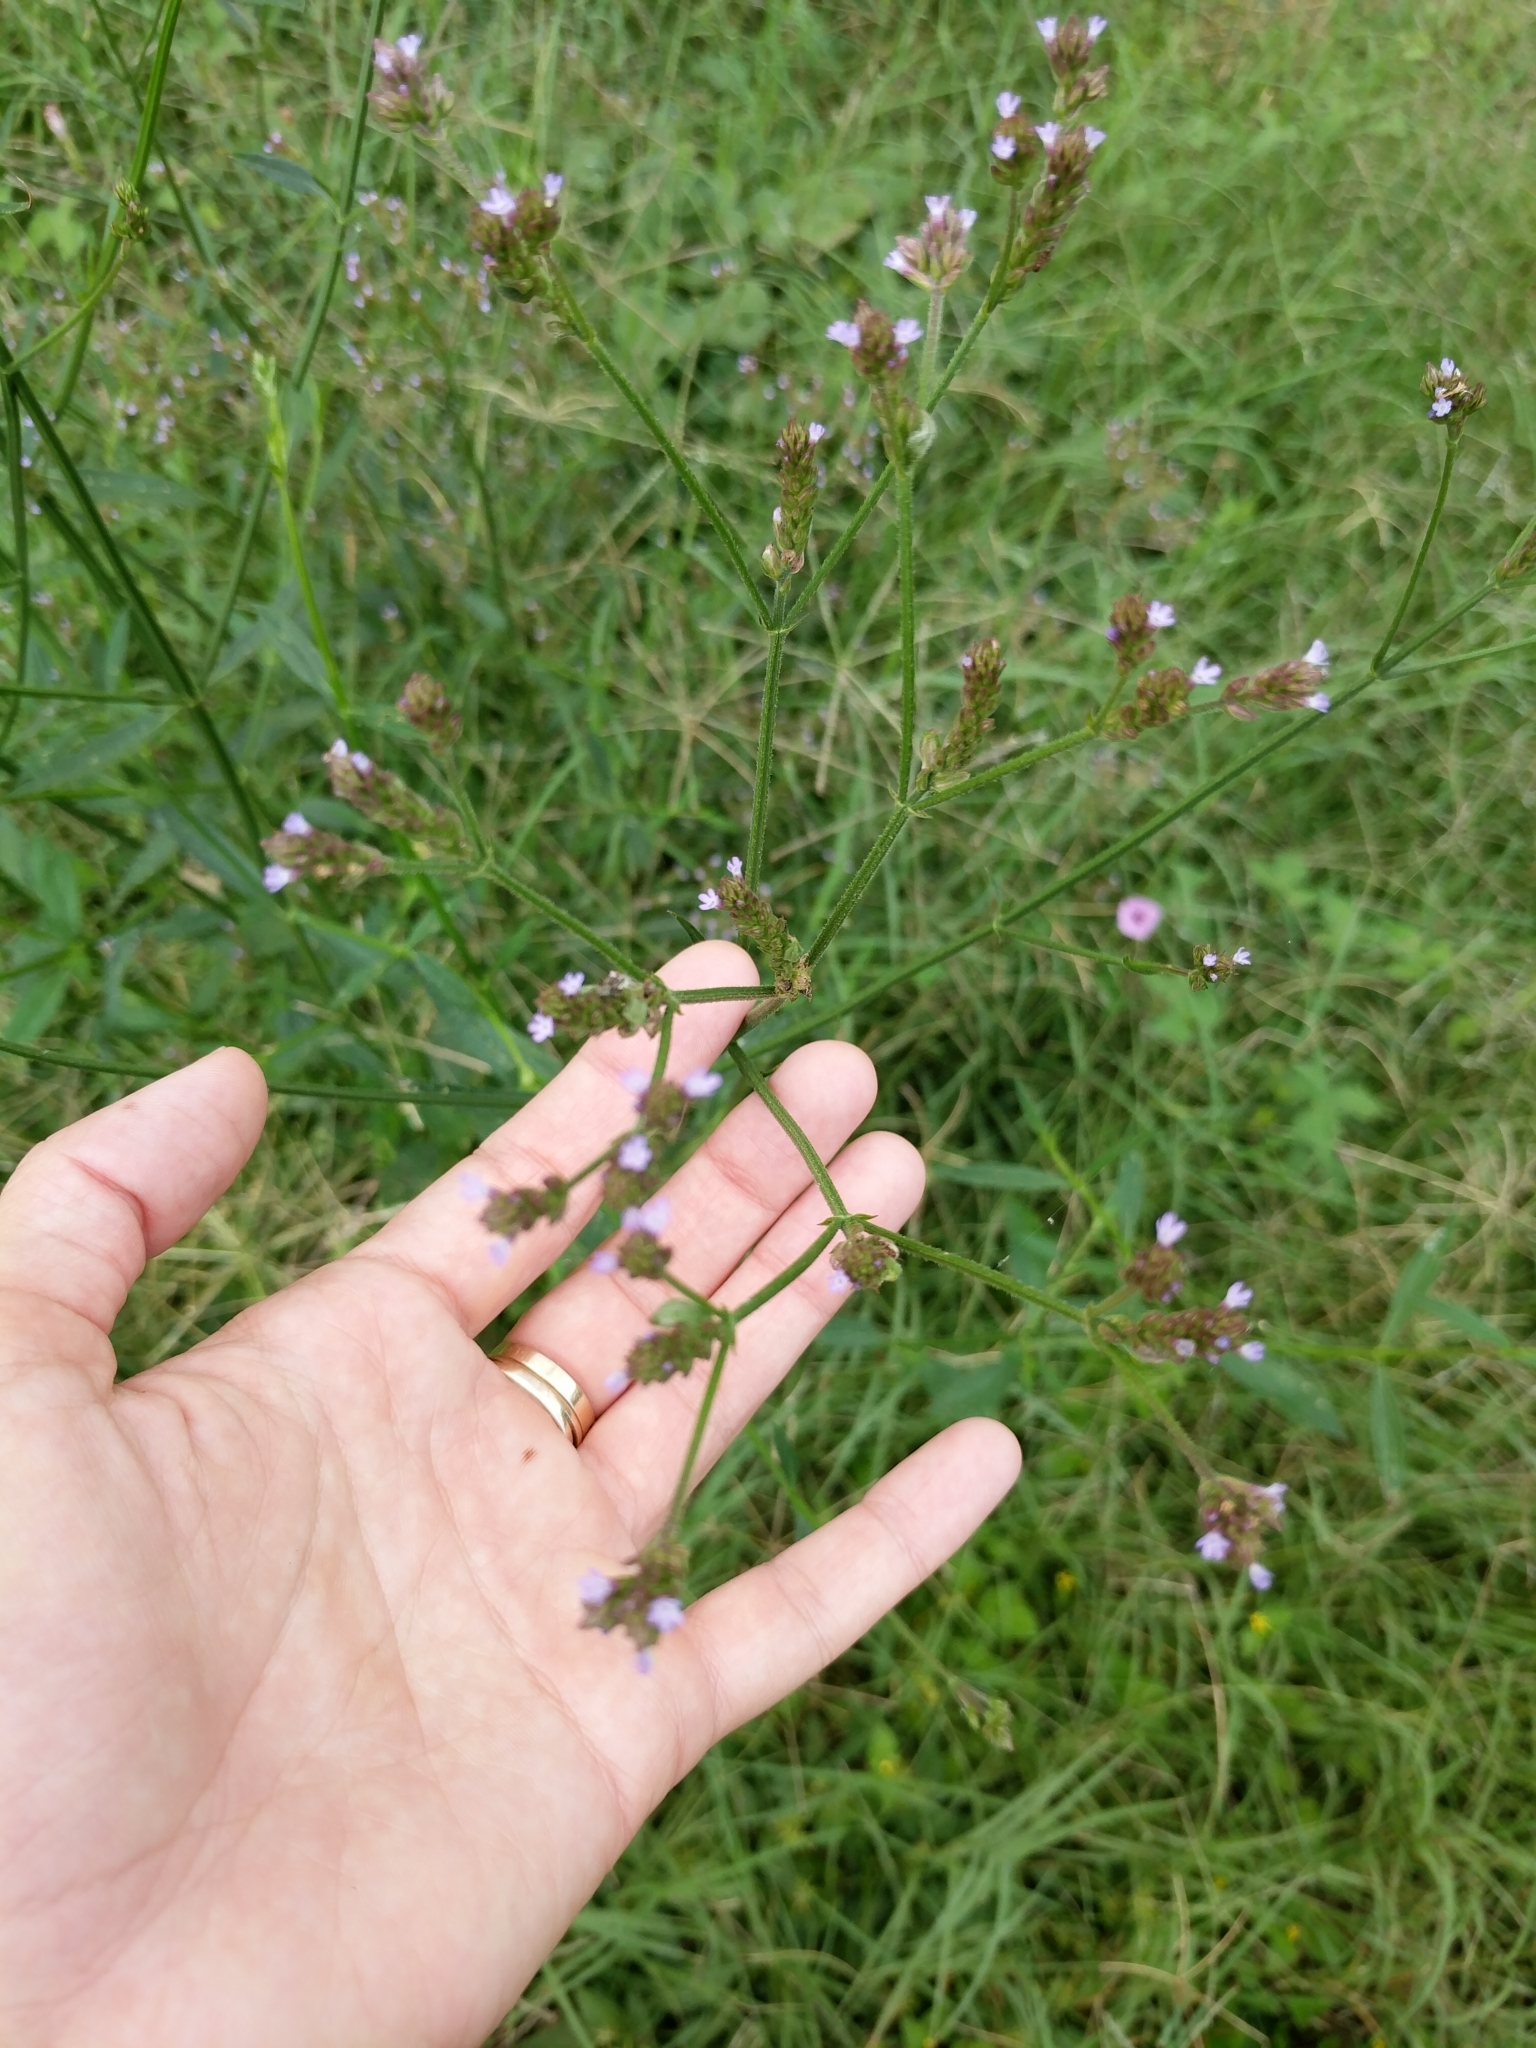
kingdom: Plantae
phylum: Tracheophyta
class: Magnoliopsida
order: Lamiales
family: Verbenaceae
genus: Verbena
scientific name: Verbena brasiliensis
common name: Brazilian vervain
